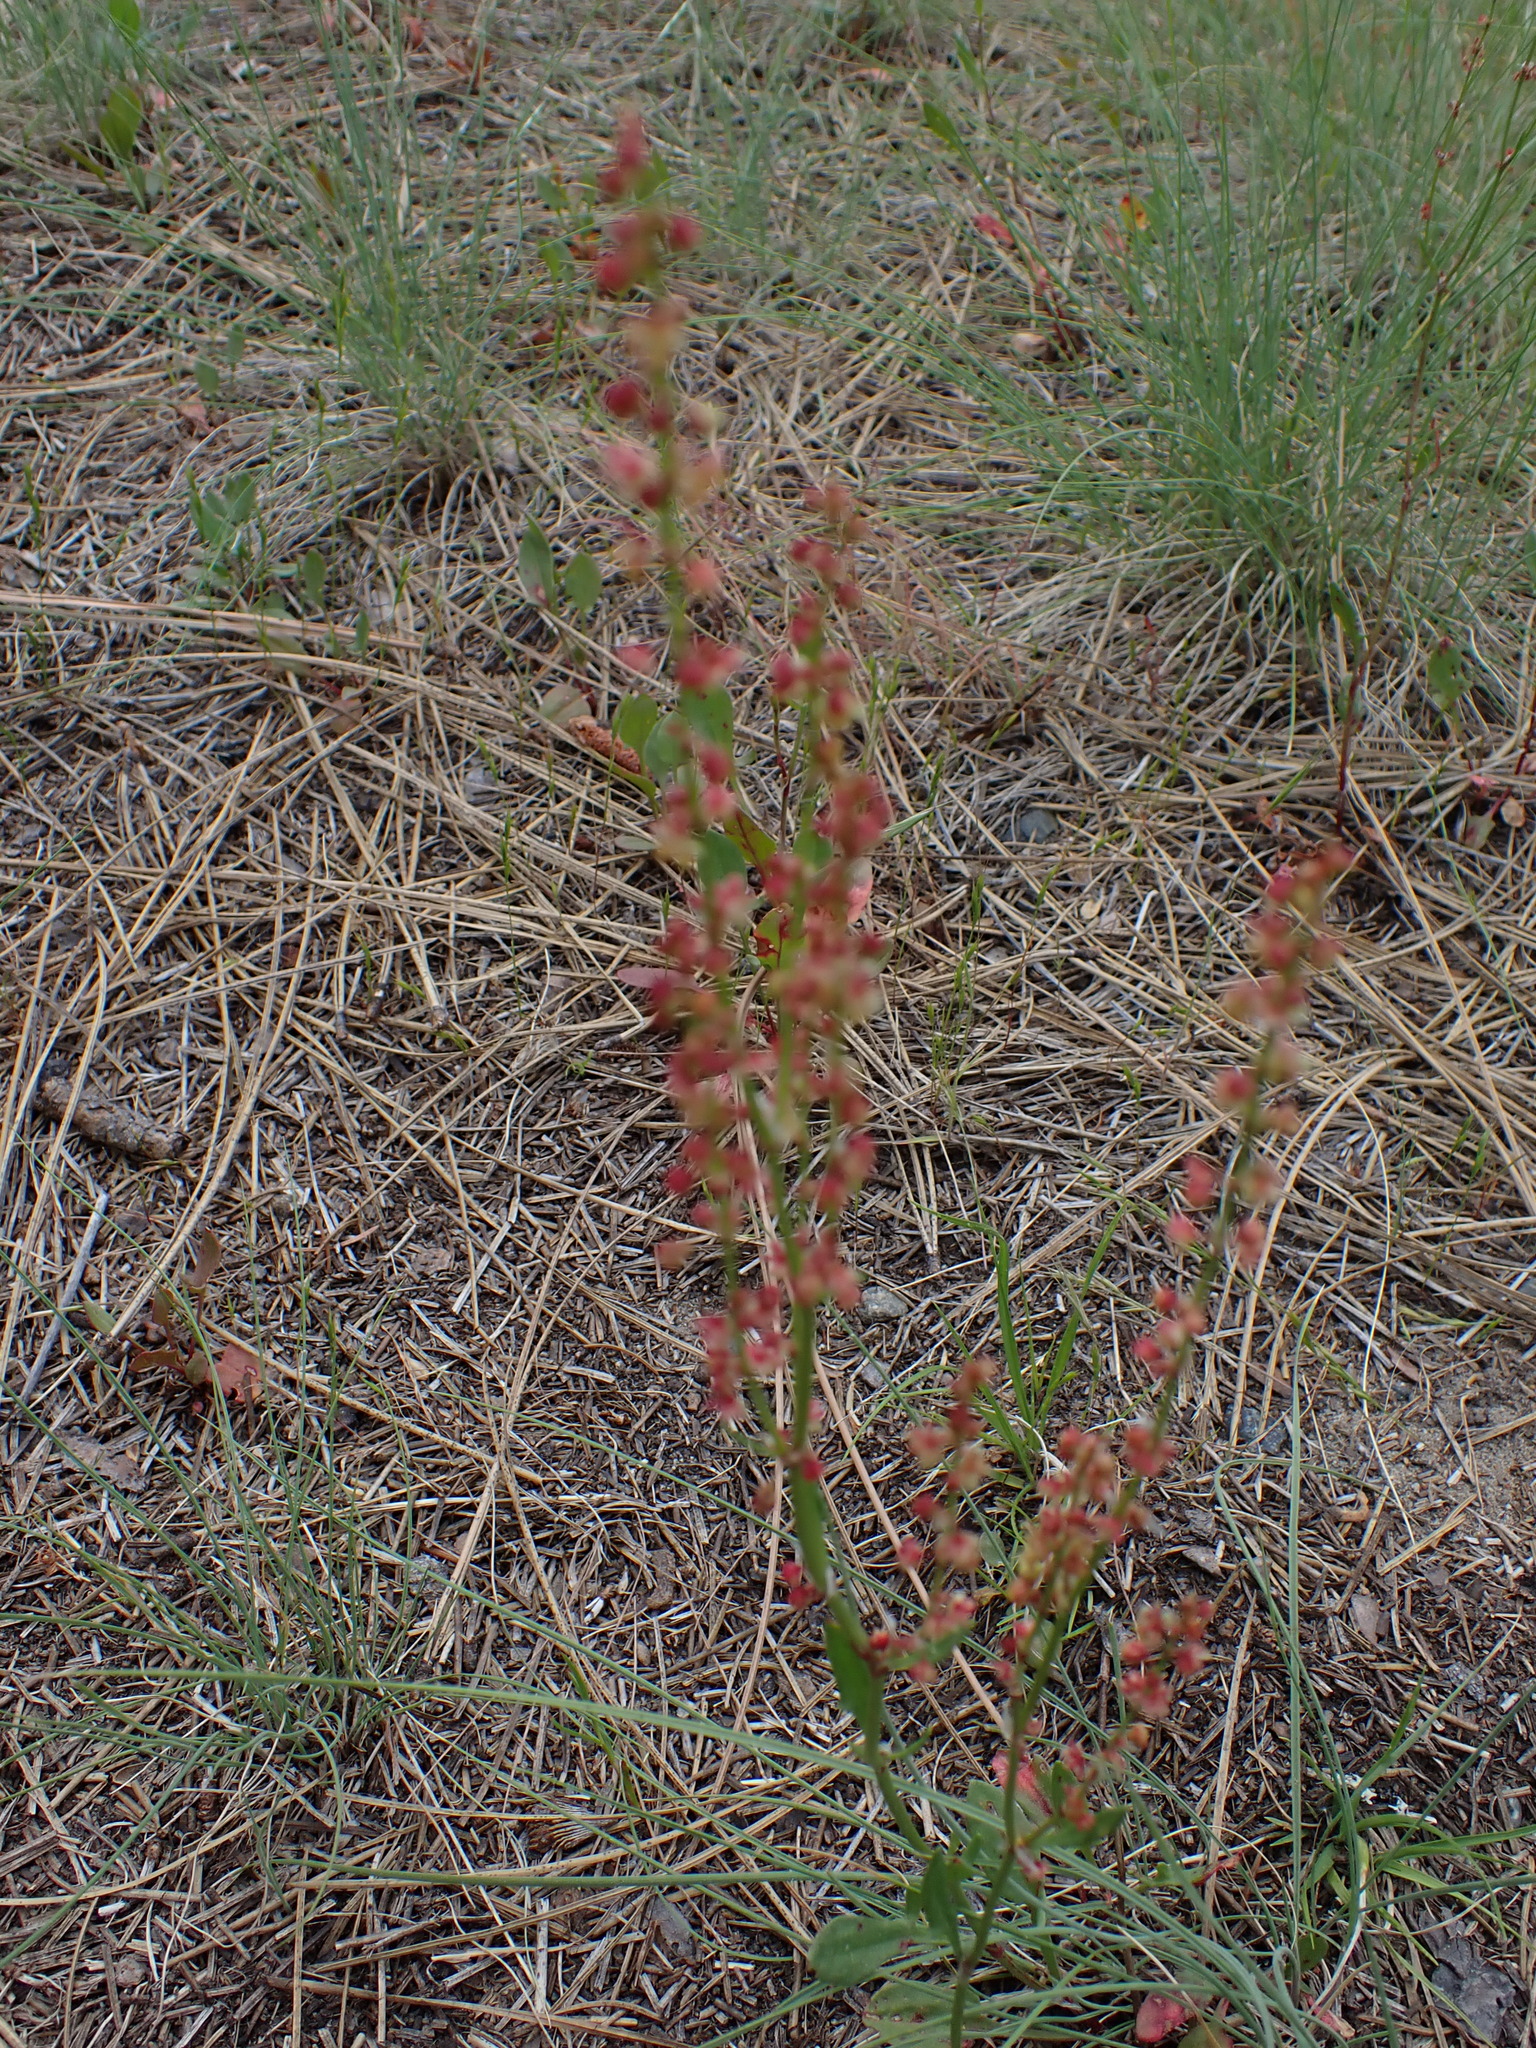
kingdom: Plantae
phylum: Tracheophyta
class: Magnoliopsida
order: Caryophyllales
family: Polygonaceae
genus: Rumex
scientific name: Rumex acetosella
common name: Common sheep sorrel
